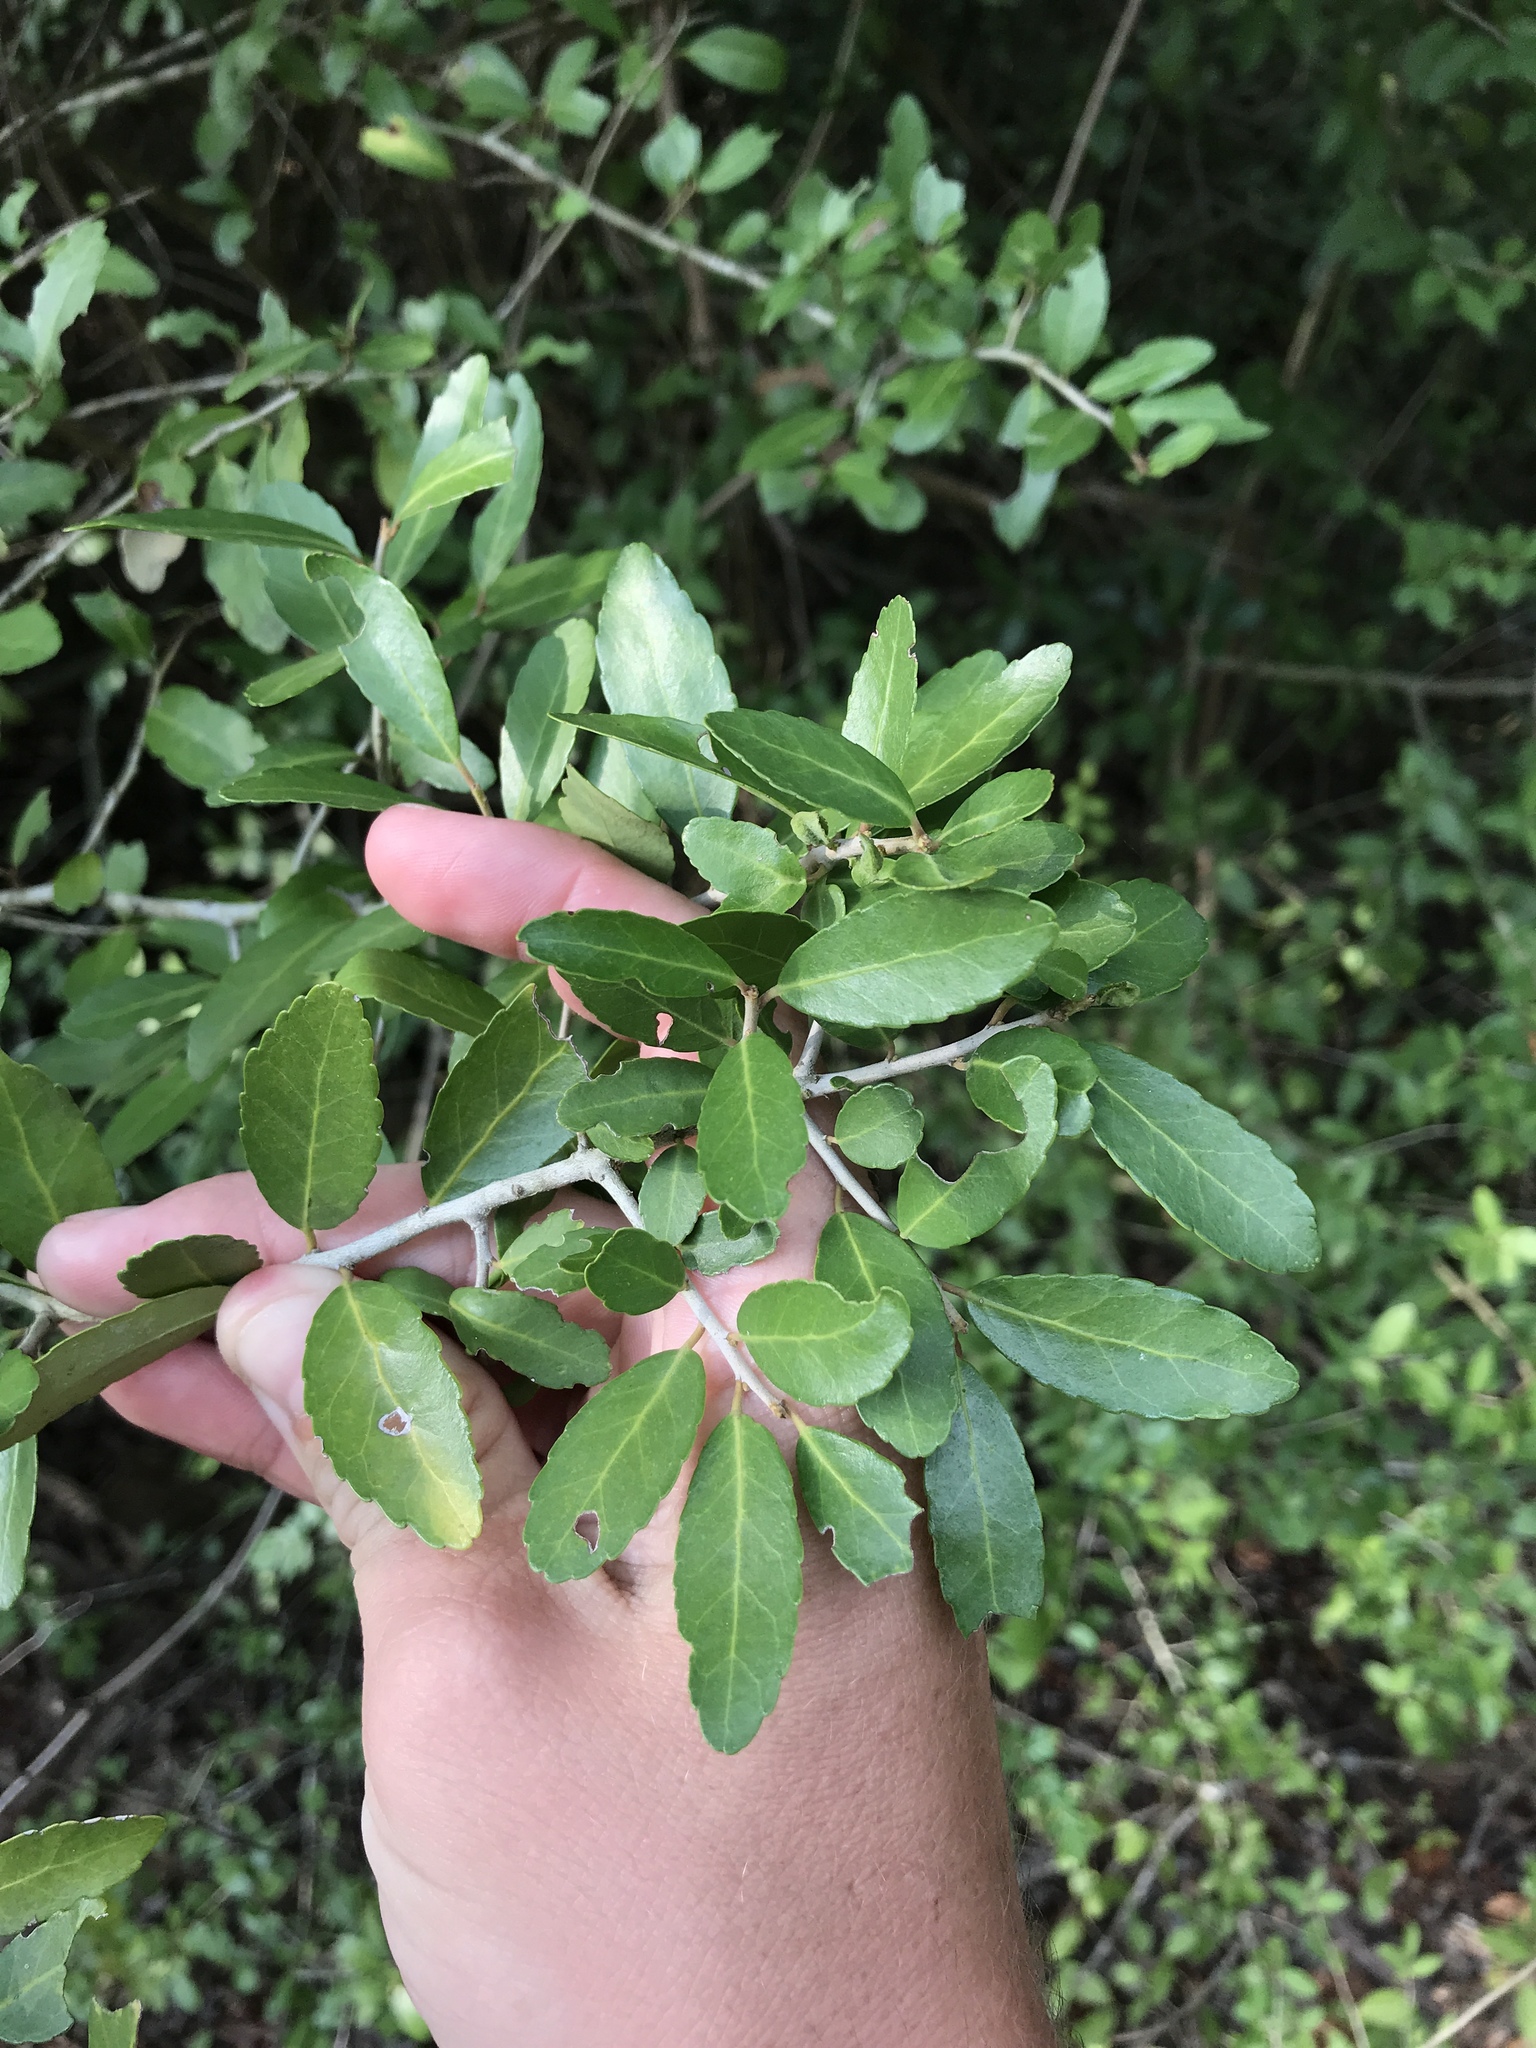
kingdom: Plantae
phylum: Tracheophyta
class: Magnoliopsida
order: Aquifoliales
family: Aquifoliaceae
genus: Ilex
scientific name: Ilex vomitoria
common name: Yaupon holly
